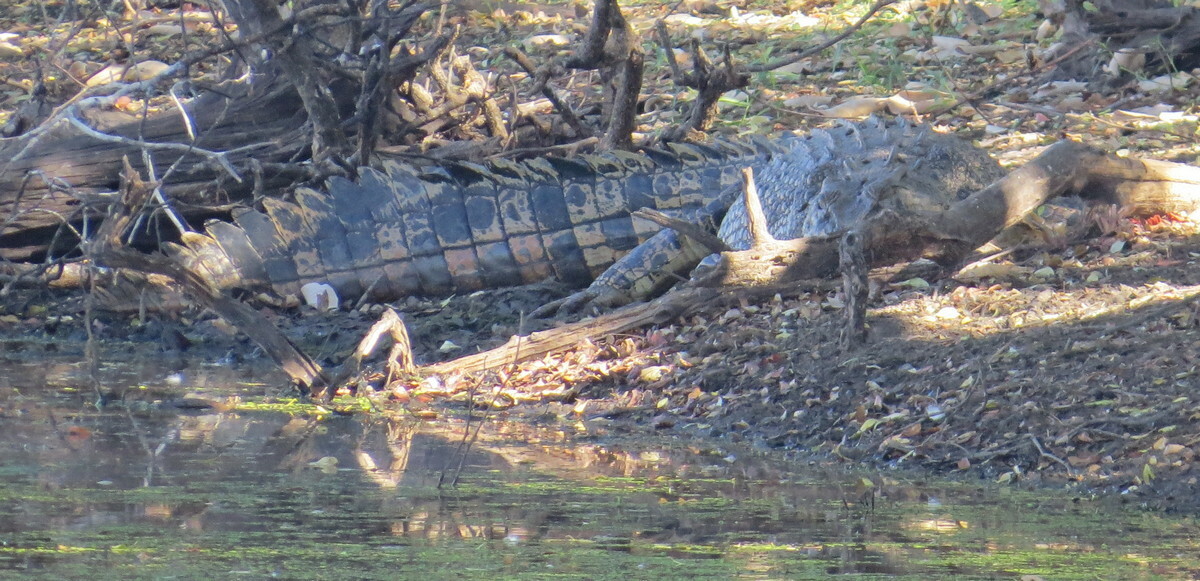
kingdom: Animalia
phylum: Chordata
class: Crocodylia
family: Crocodylidae
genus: Crocodylus
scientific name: Crocodylus porosus
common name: Saltwater crocodile
